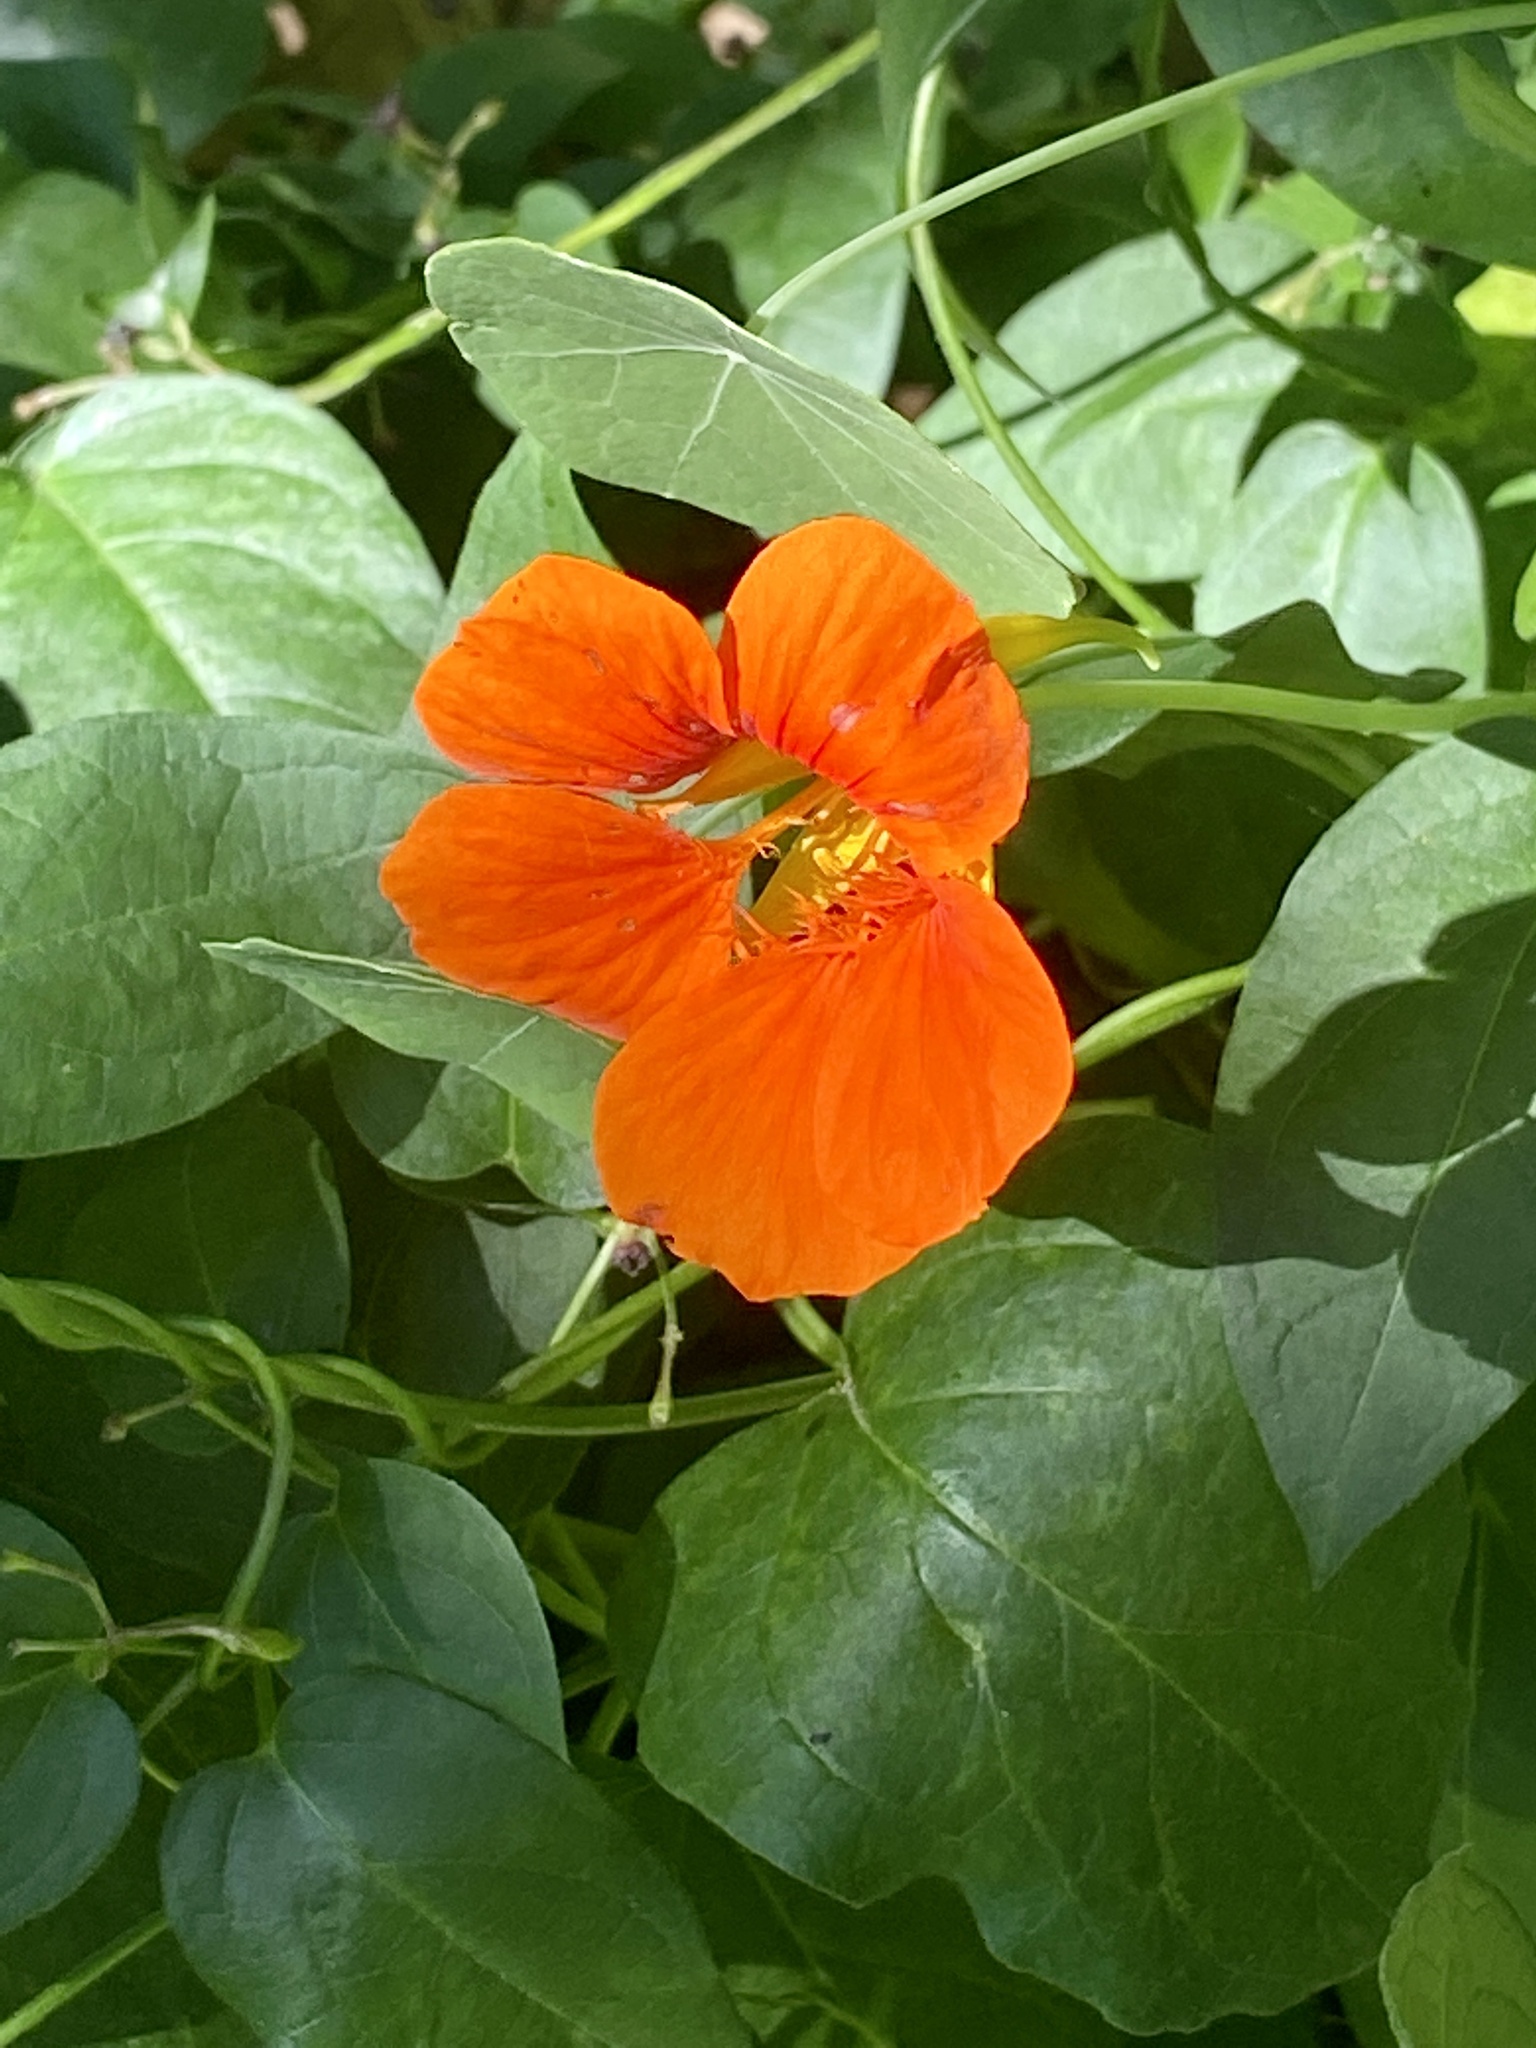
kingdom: Plantae
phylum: Tracheophyta
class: Magnoliopsida
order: Brassicales
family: Tropaeolaceae
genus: Tropaeolum
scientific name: Tropaeolum majus
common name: Nasturtium
